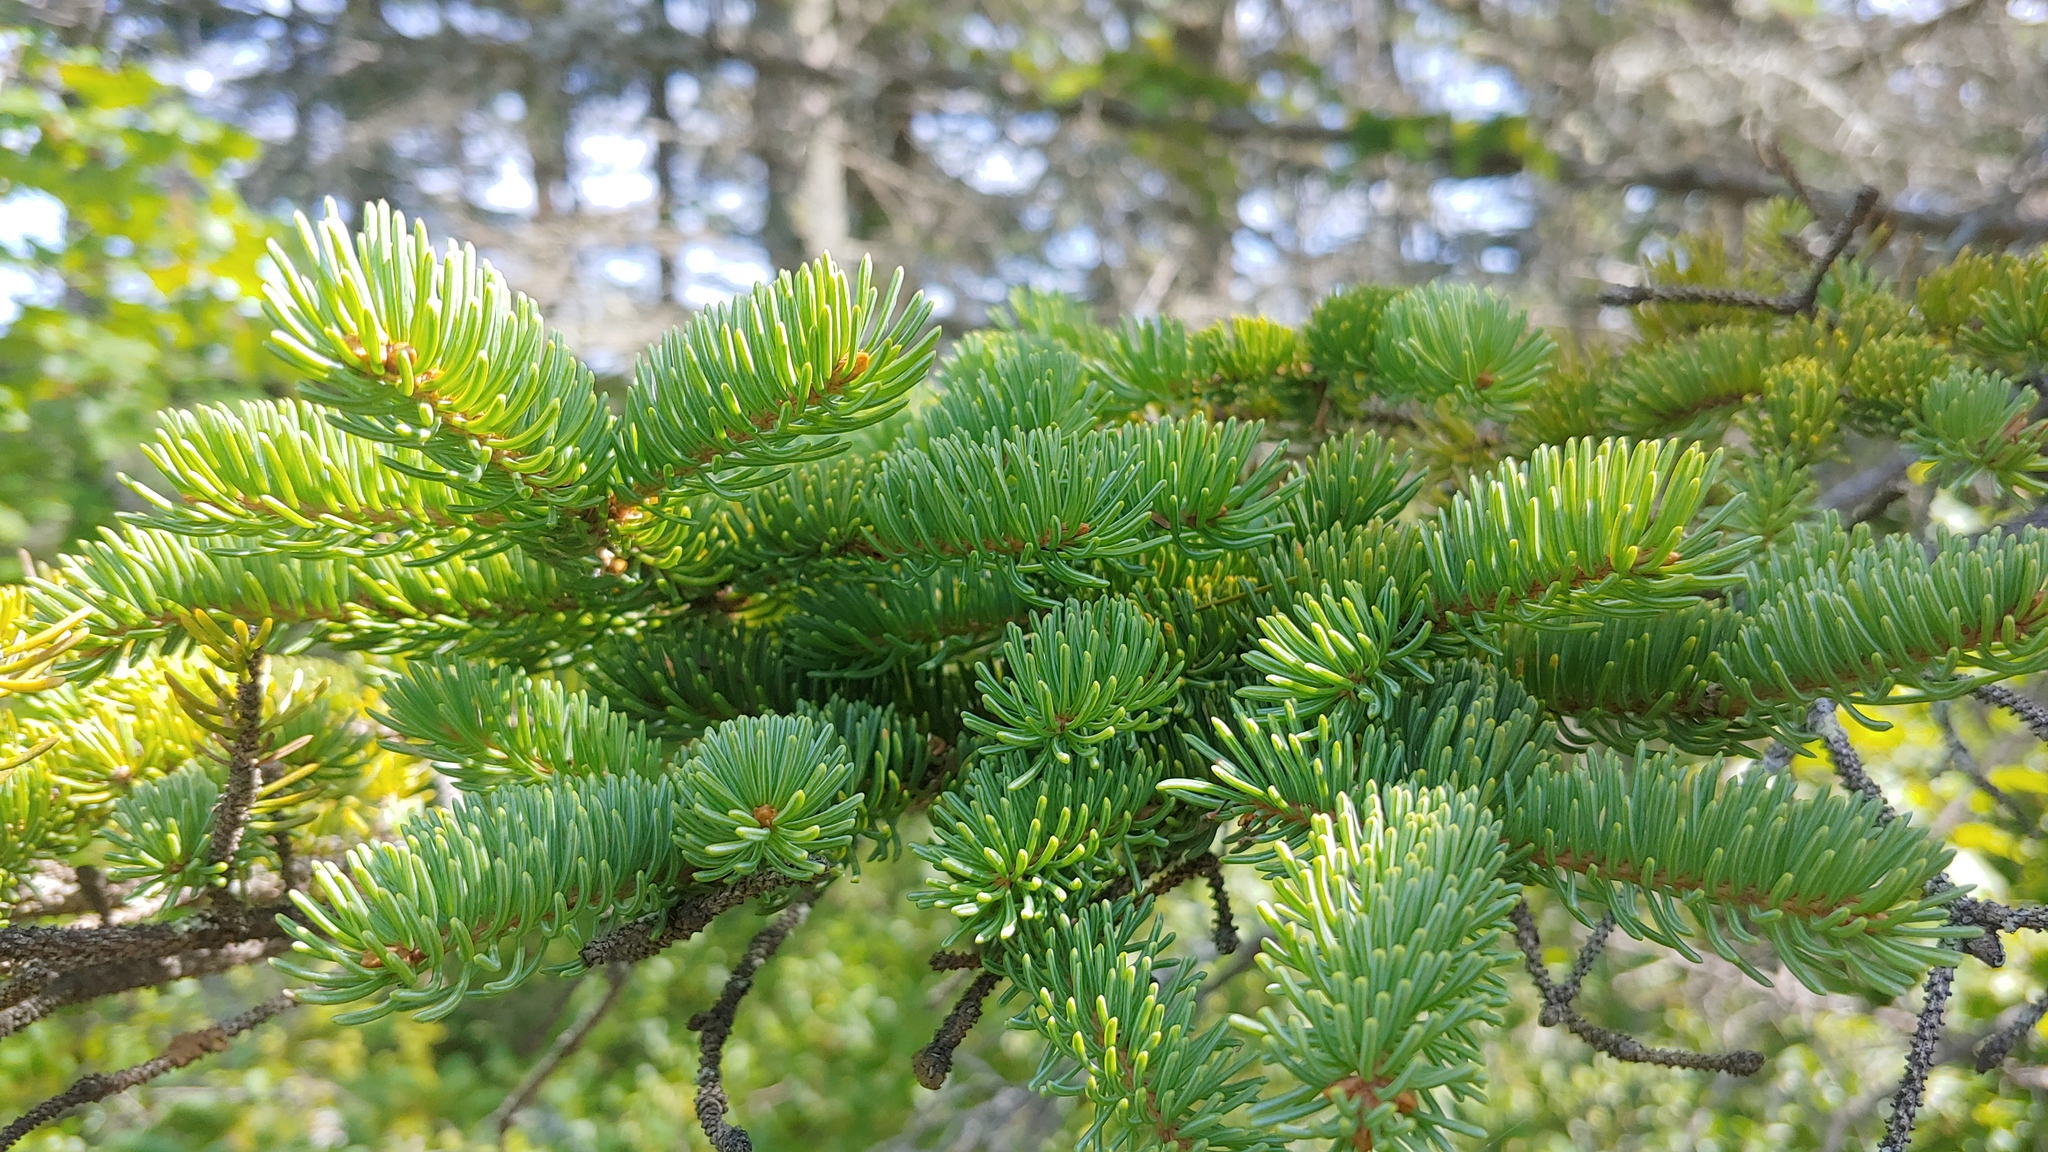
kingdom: Plantae
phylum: Tracheophyta
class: Pinopsida
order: Pinales
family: Pinaceae
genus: Picea
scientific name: Picea glauca
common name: White spruce
